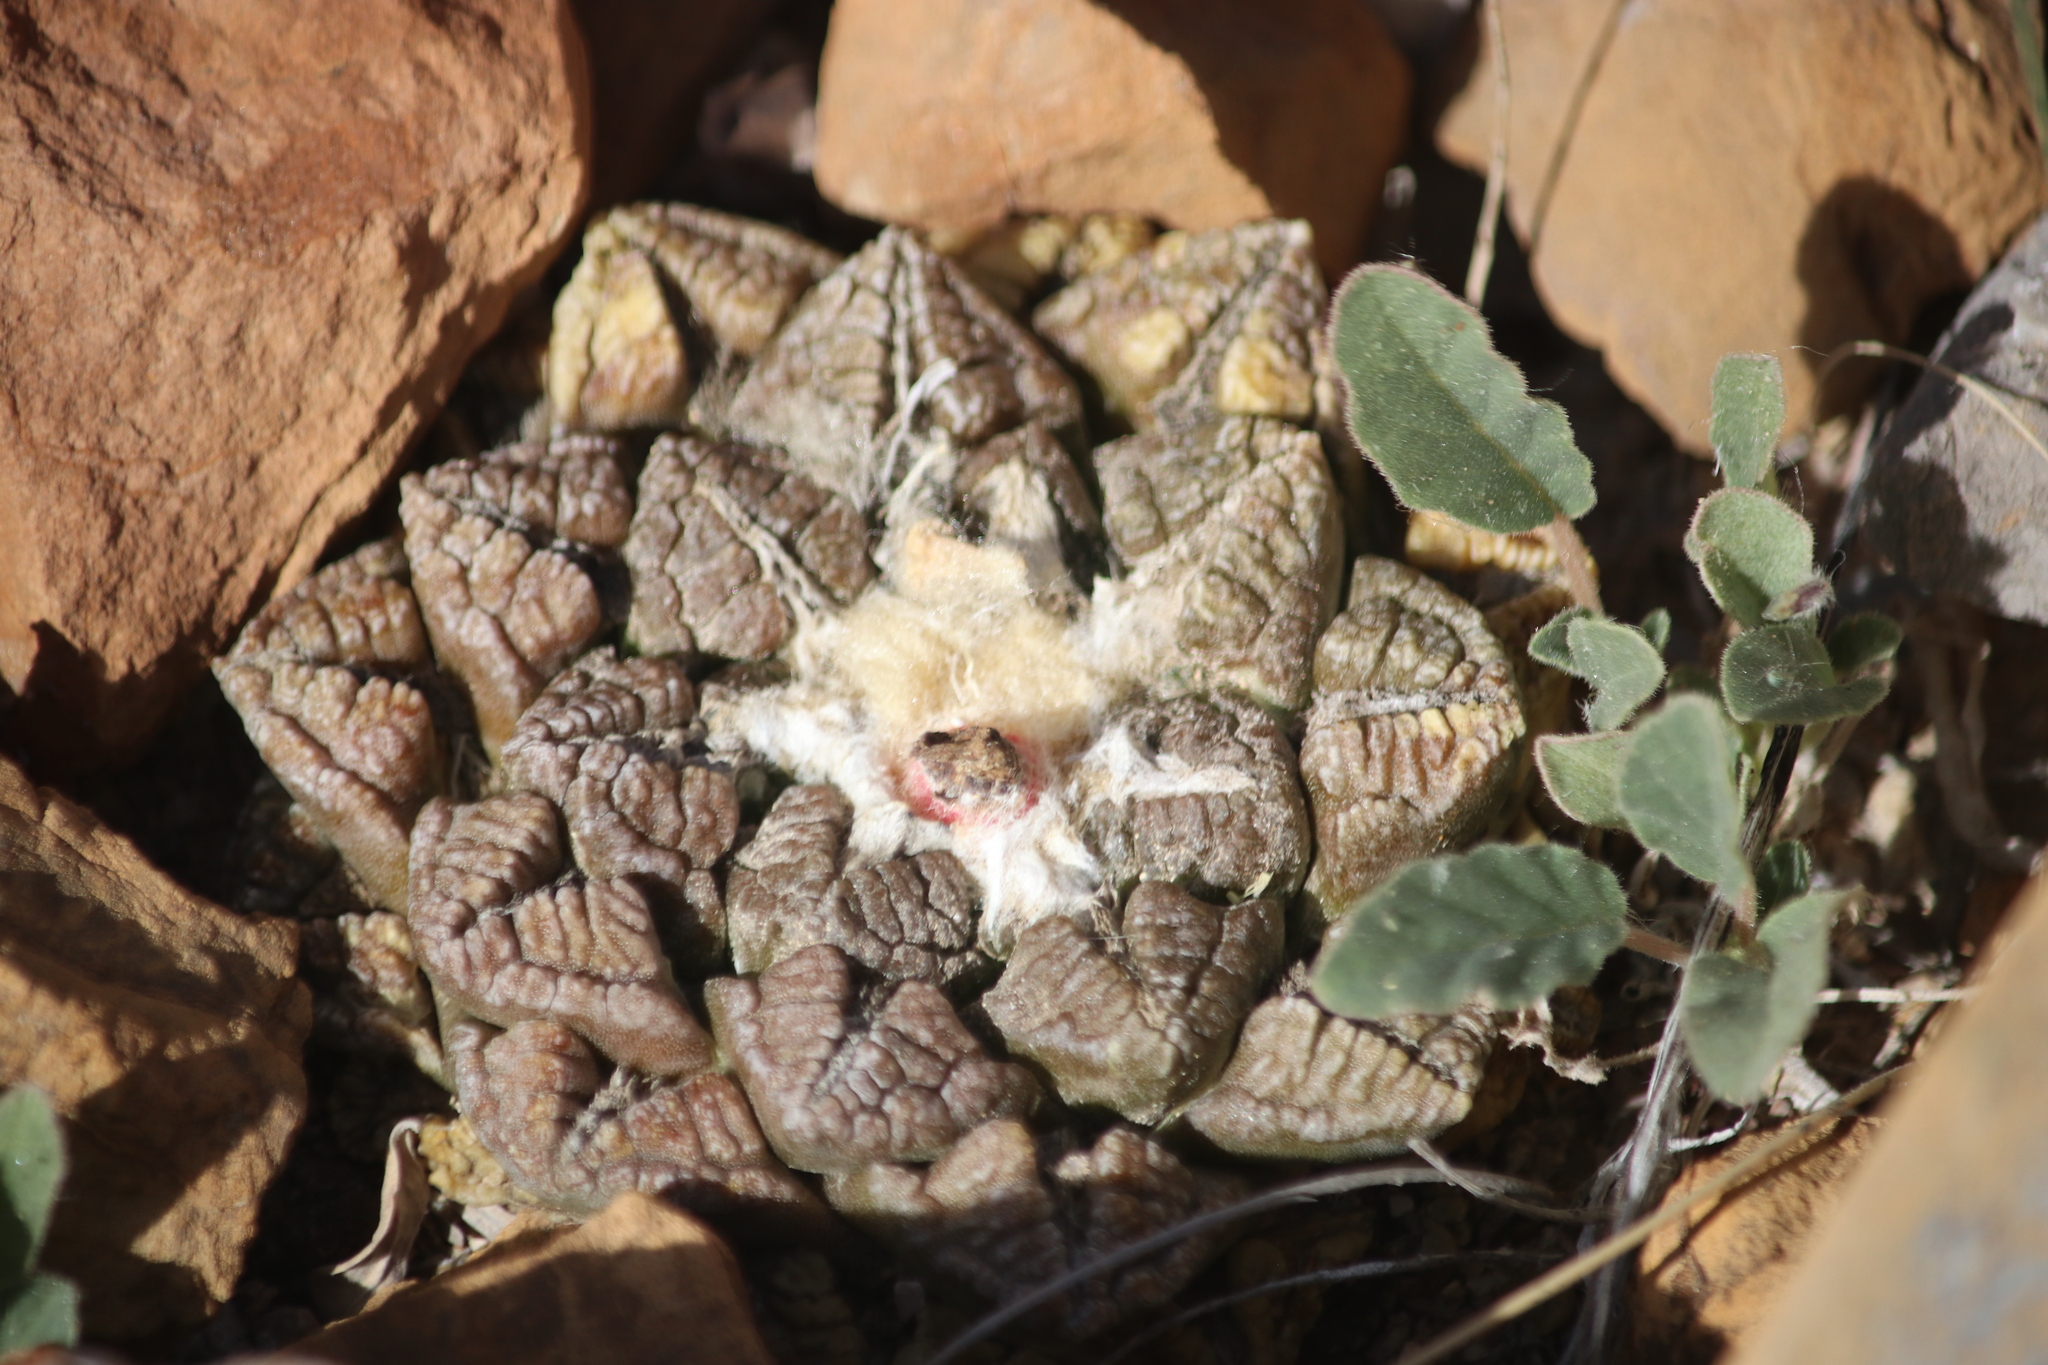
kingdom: Plantae
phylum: Tracheophyta
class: Magnoliopsida
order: Caryophyllales
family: Cactaceae
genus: Ariocarpus
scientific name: Ariocarpus fissuratus
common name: Chautle-living rock
